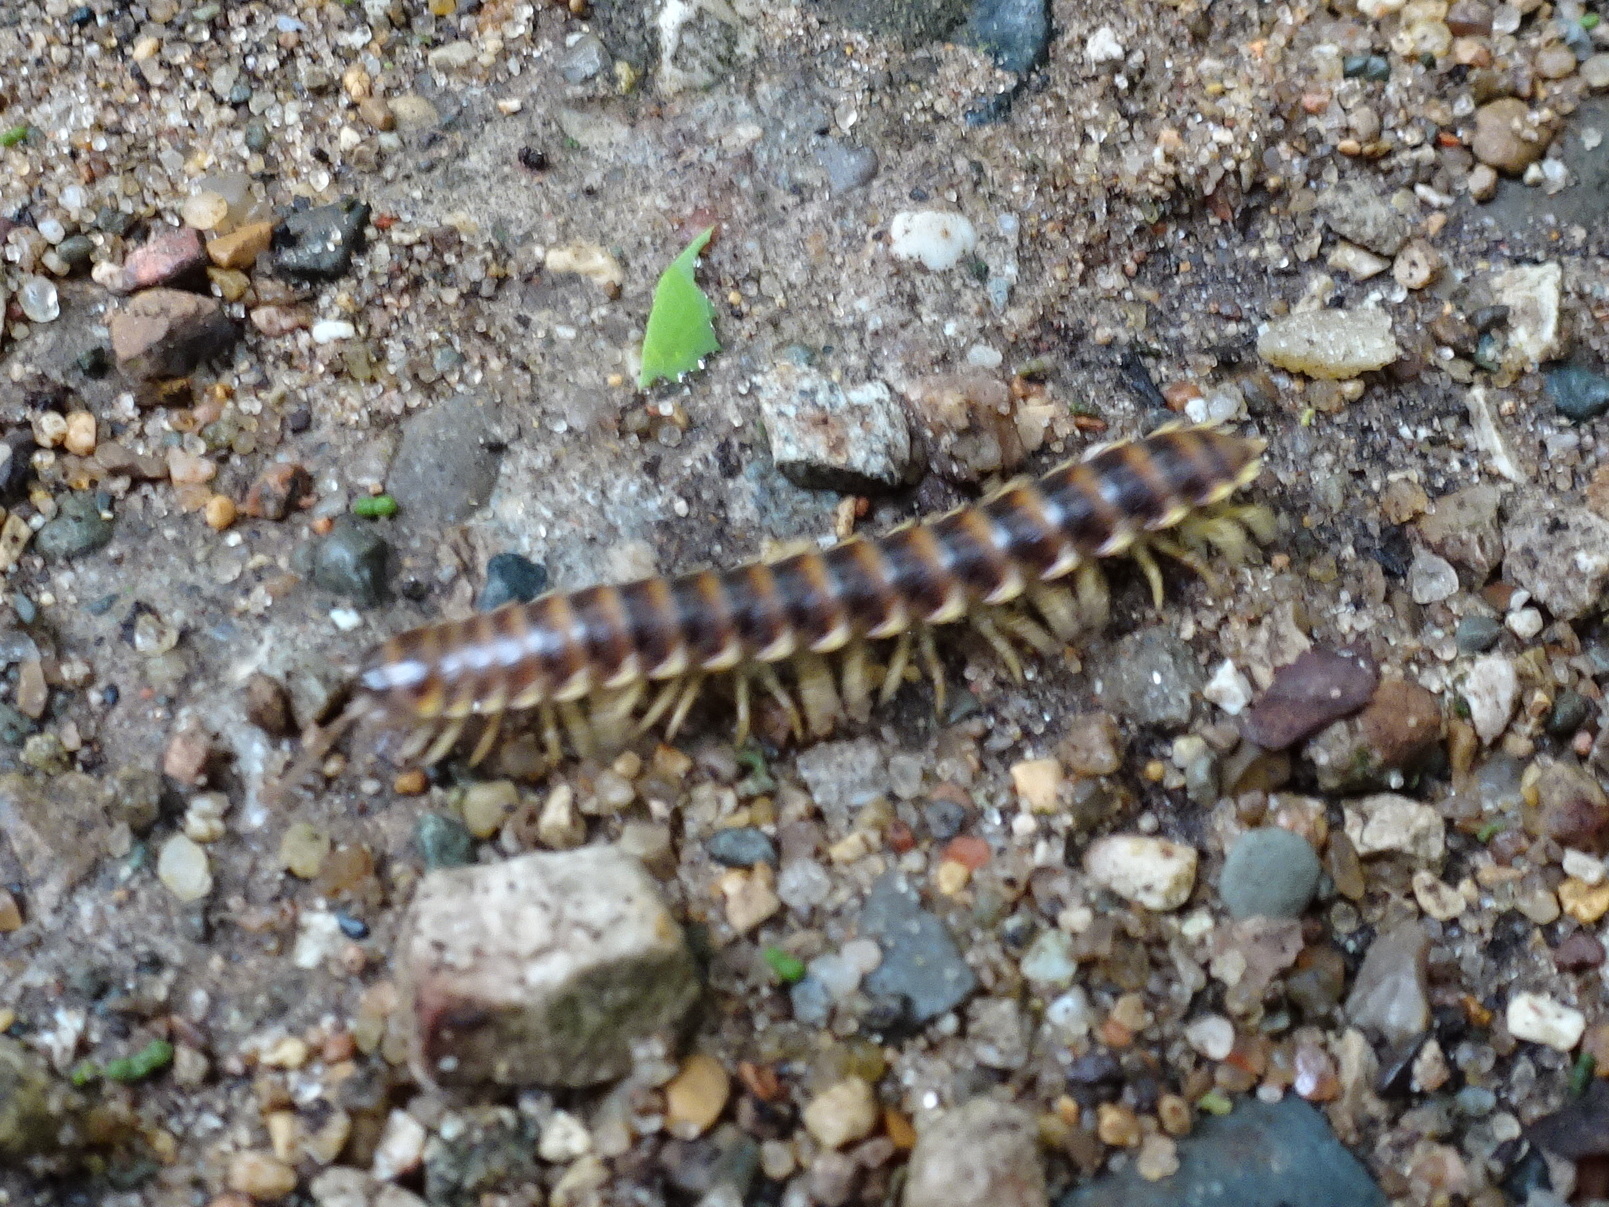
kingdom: Animalia
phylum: Arthropoda
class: Diplopoda
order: Polydesmida
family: Xystodesmidae
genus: Pleuroloma
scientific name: Pleuroloma flavipes
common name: Yellow-legged pleuroloma
